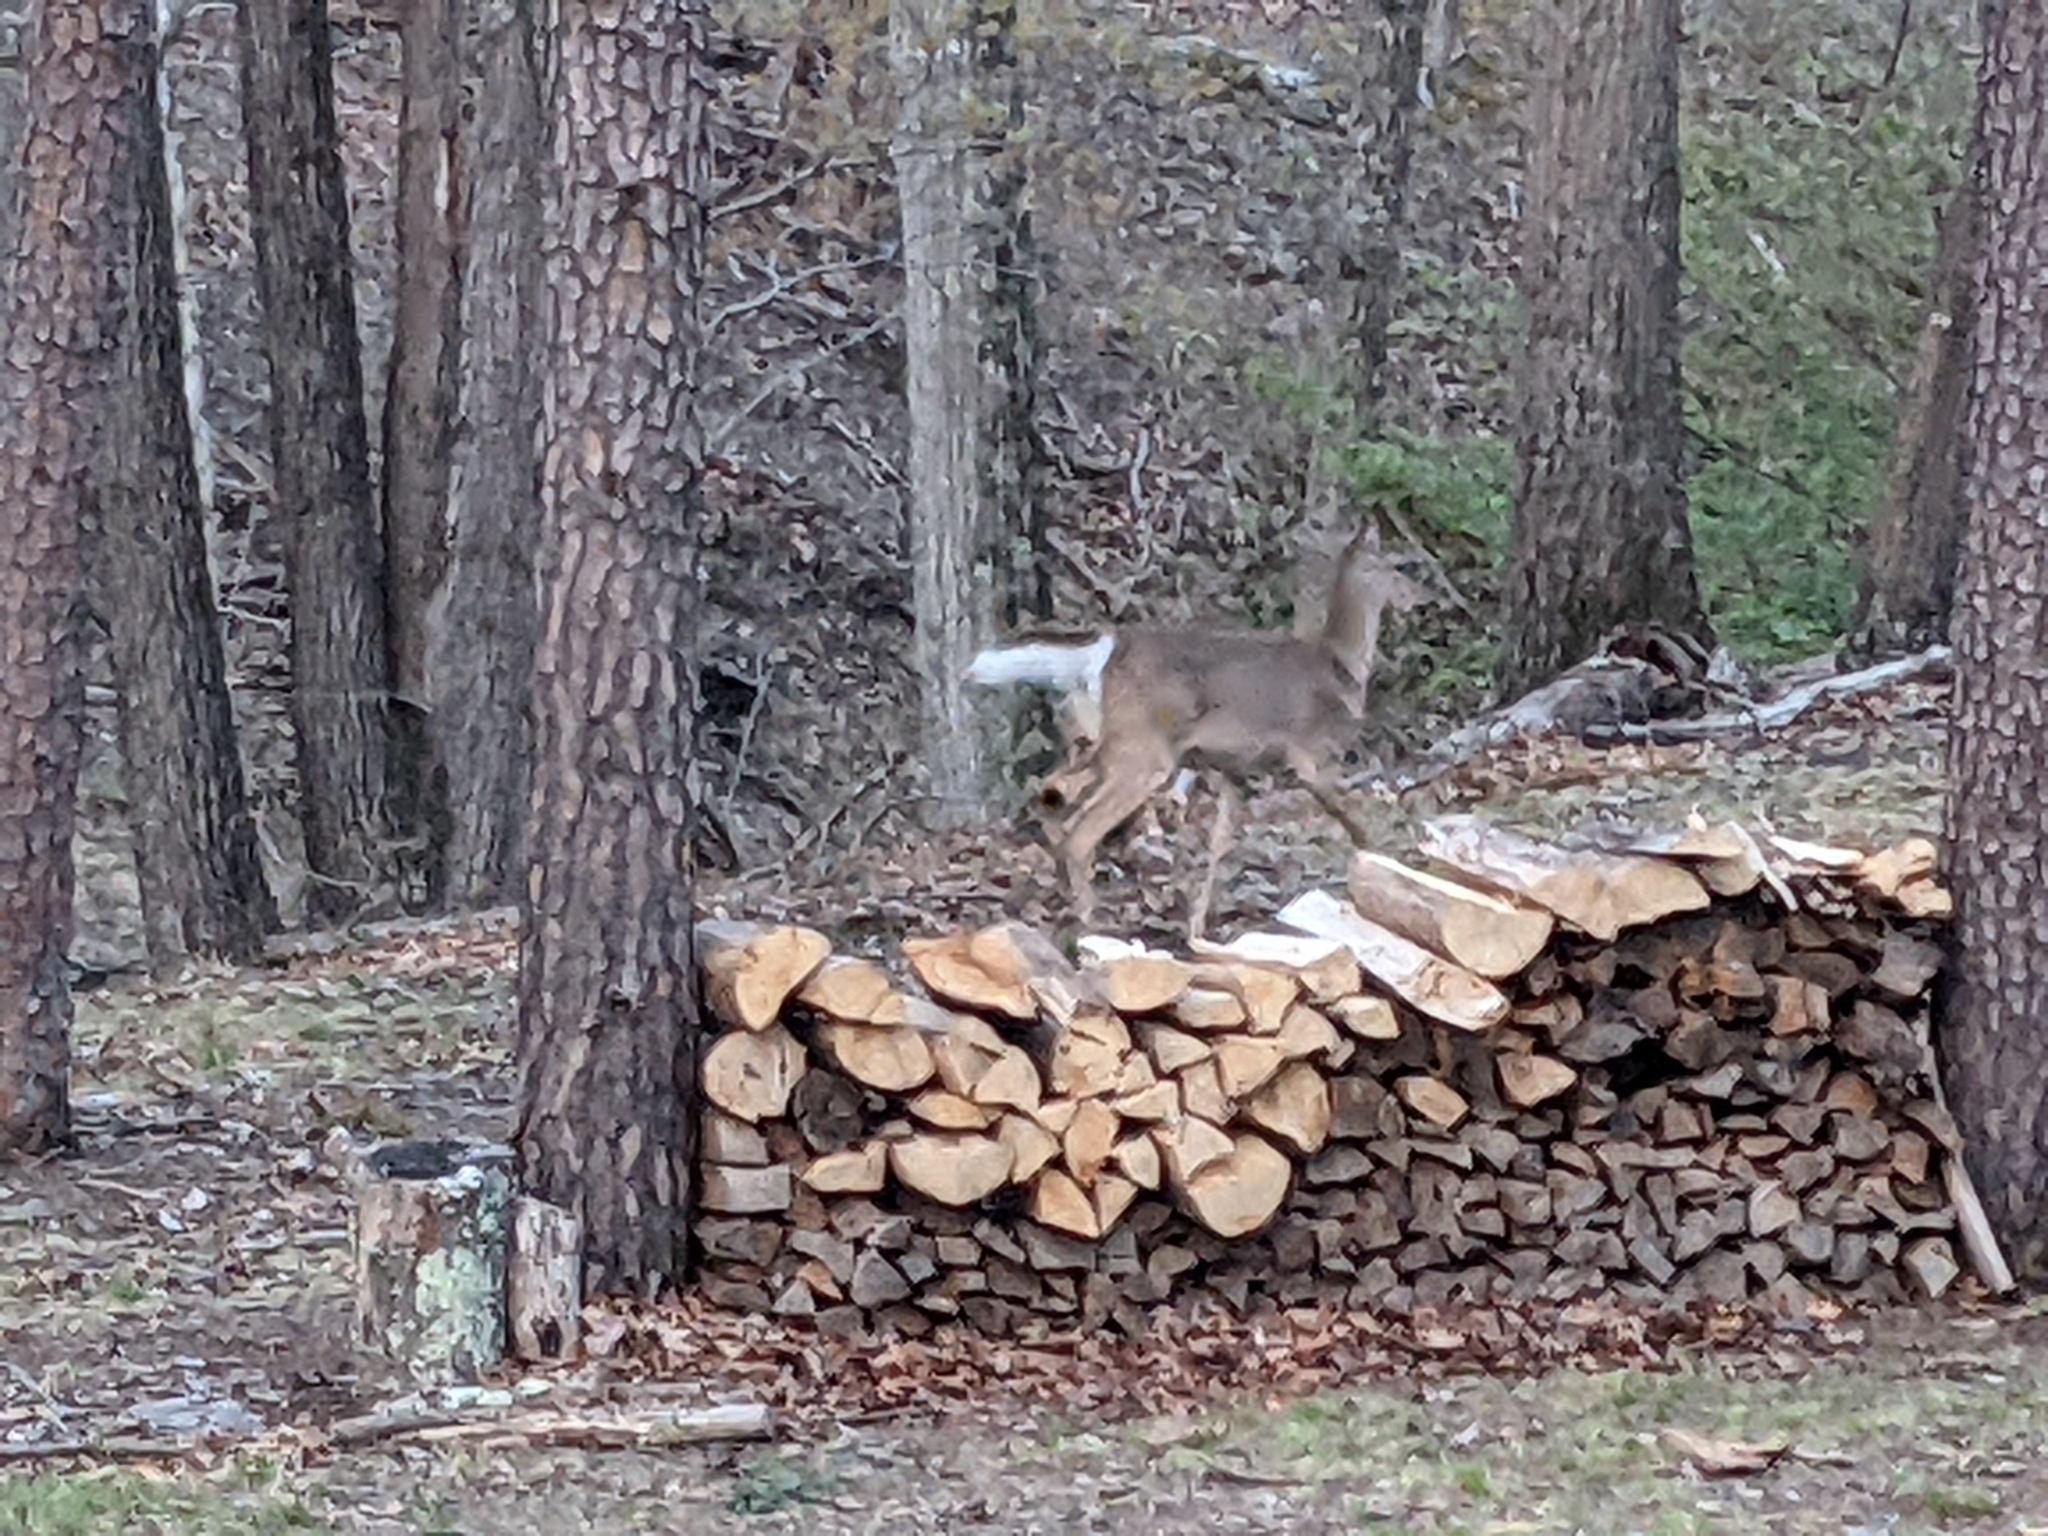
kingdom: Animalia
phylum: Chordata
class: Mammalia
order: Artiodactyla
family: Cervidae
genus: Odocoileus
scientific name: Odocoileus virginianus
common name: White-tailed deer
